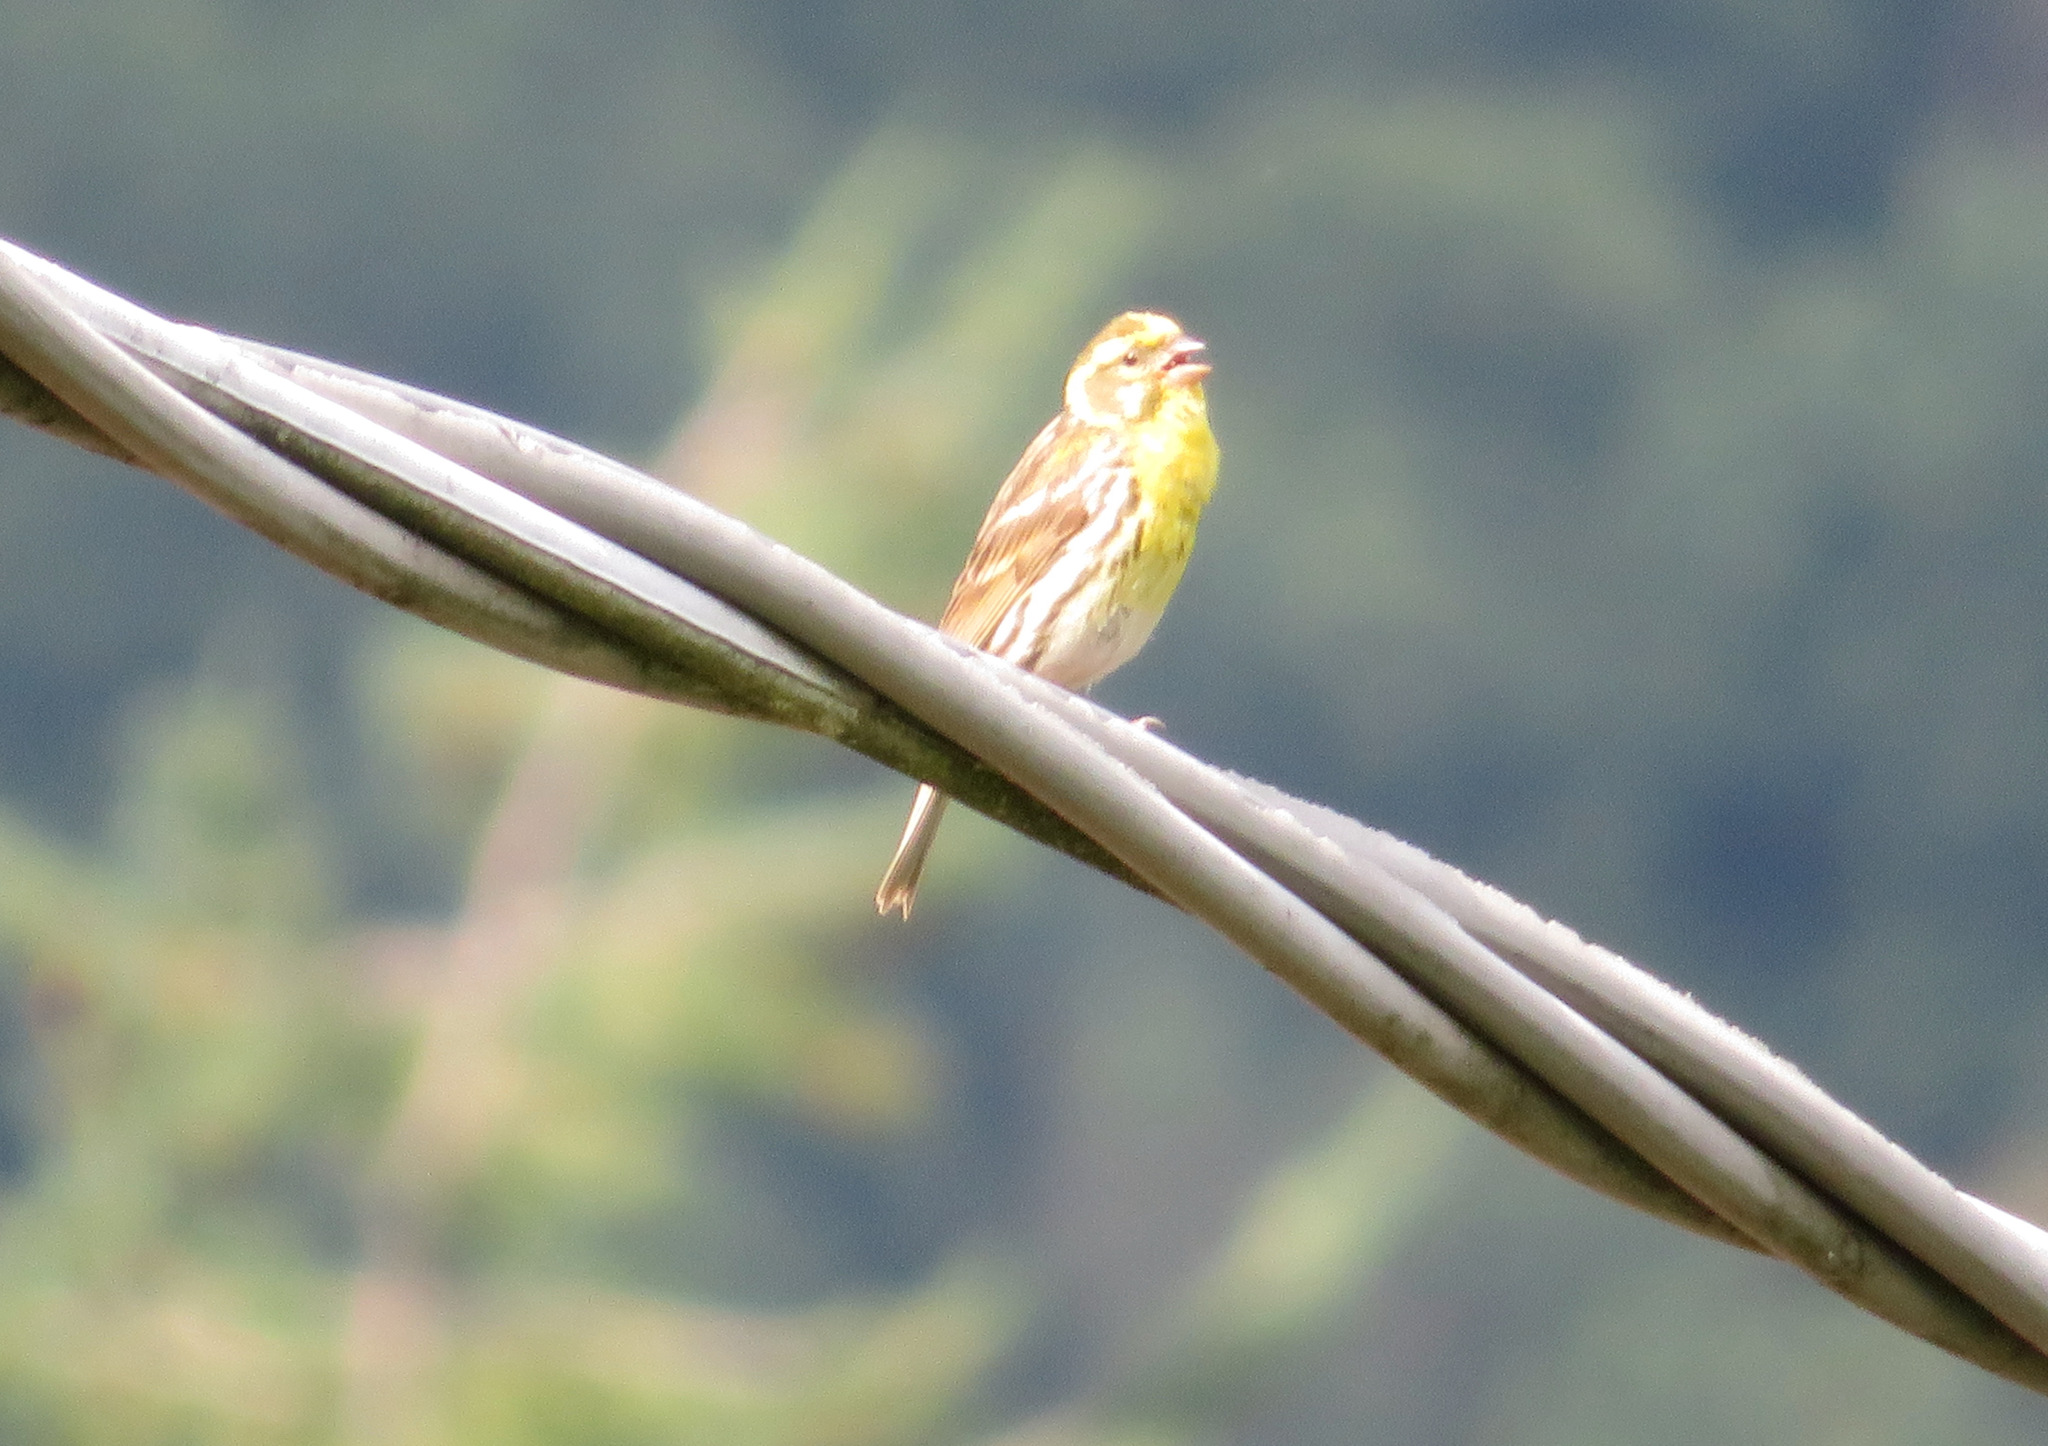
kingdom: Animalia
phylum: Chordata
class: Aves
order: Passeriformes
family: Fringillidae
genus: Serinus
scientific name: Serinus serinus
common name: European serin
